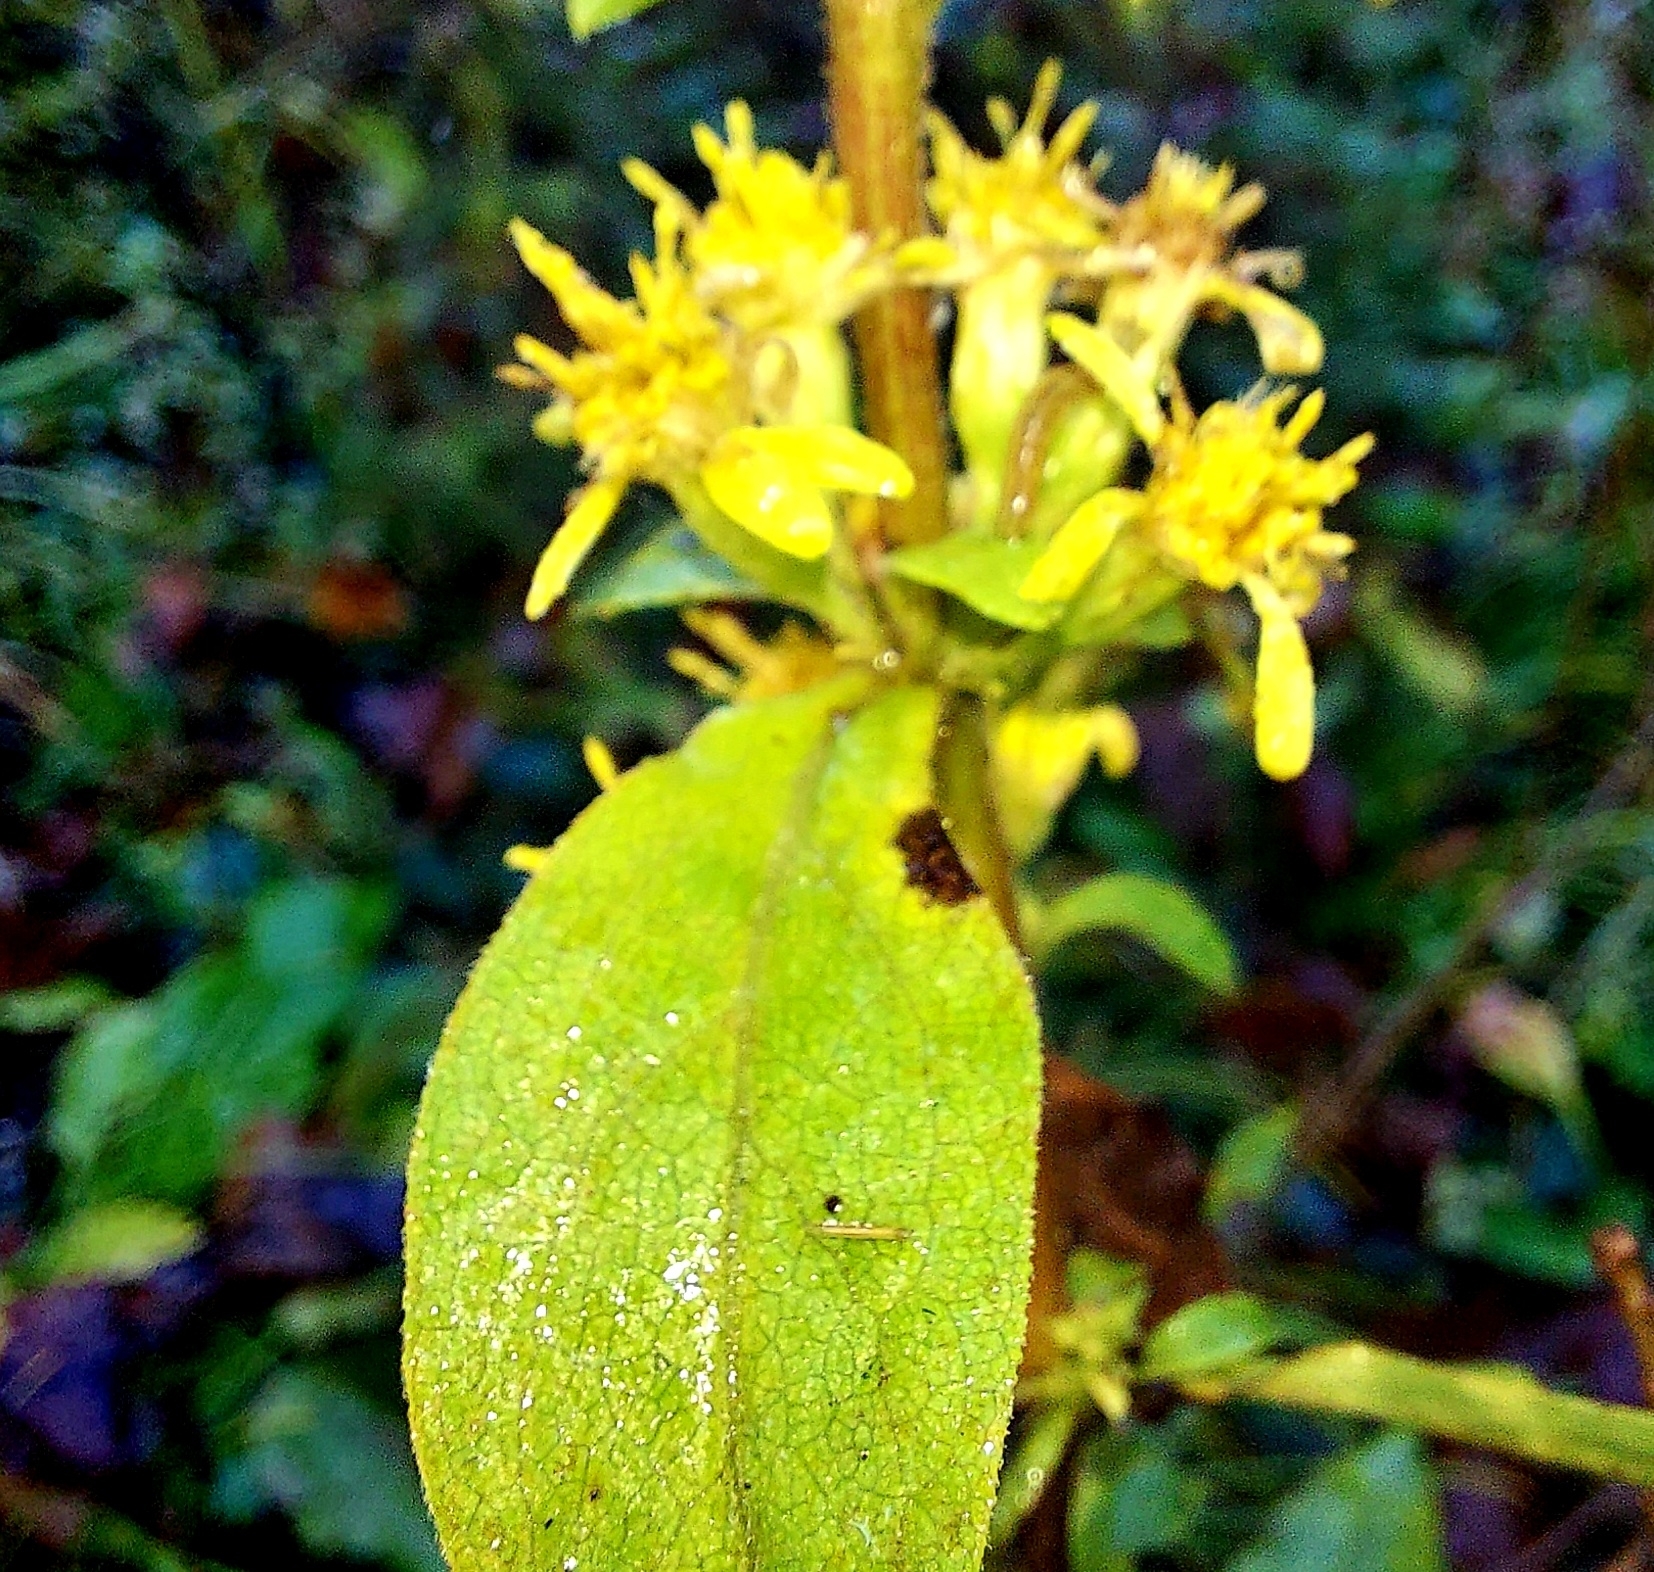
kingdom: Plantae
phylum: Tracheophyta
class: Magnoliopsida
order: Asterales
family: Asteraceae
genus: Solidago
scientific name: Solidago virgaurea
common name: Goldenrod
